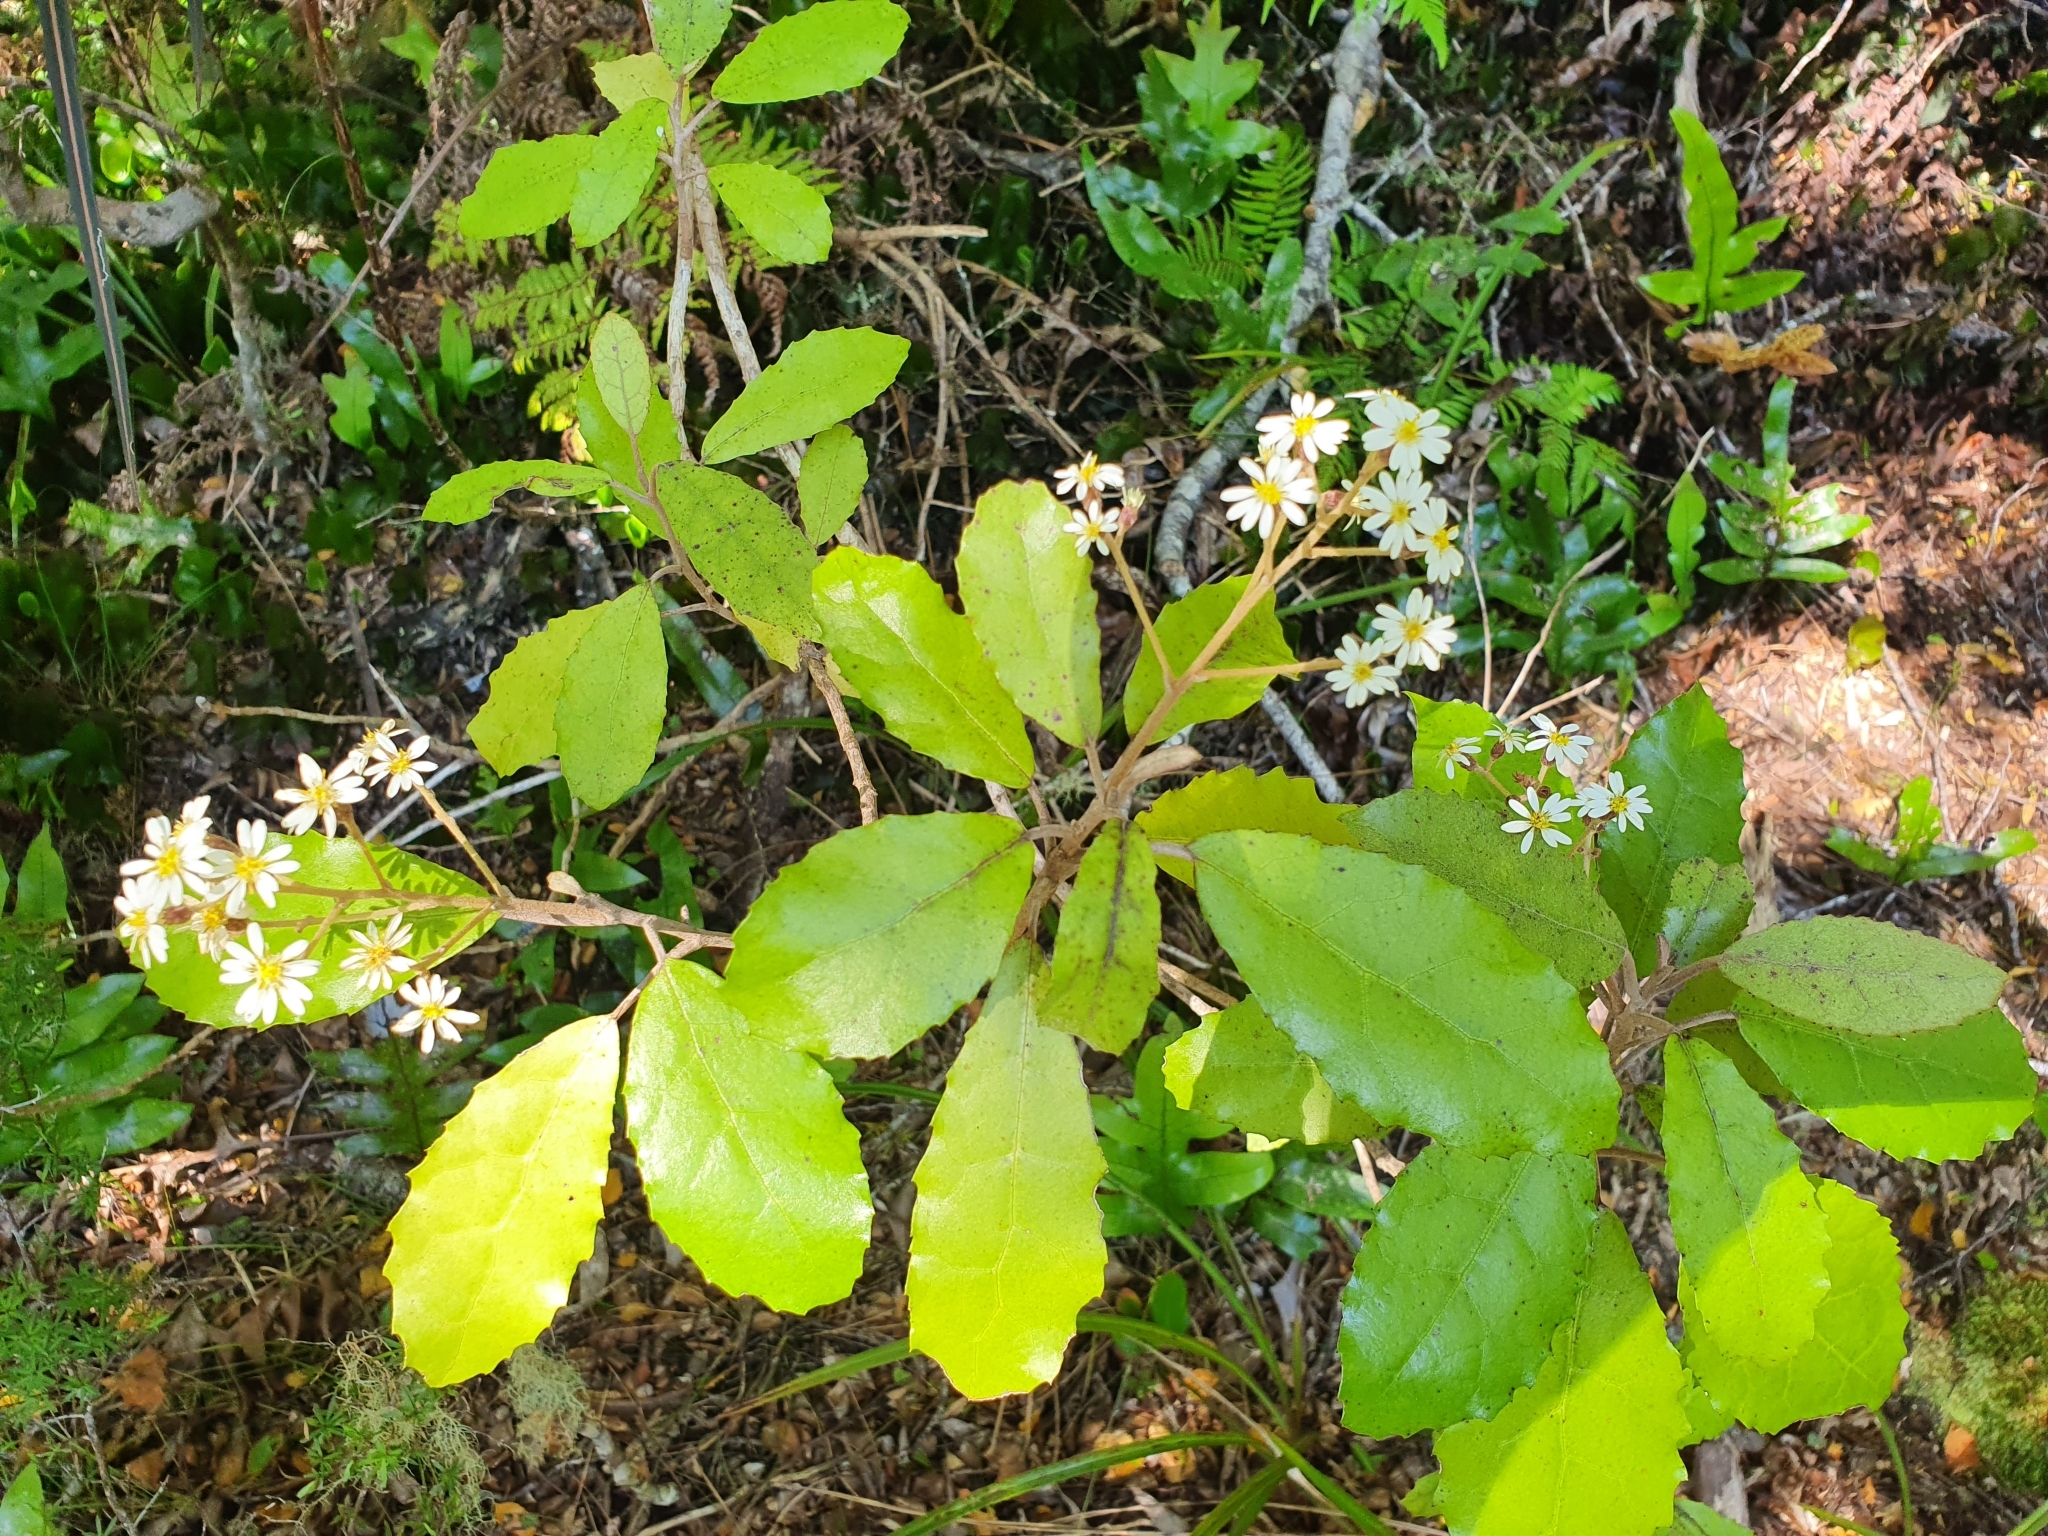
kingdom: Plantae
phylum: Tracheophyta
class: Magnoliopsida
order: Asterales
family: Asteraceae
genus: Olearia
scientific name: Olearia rani
